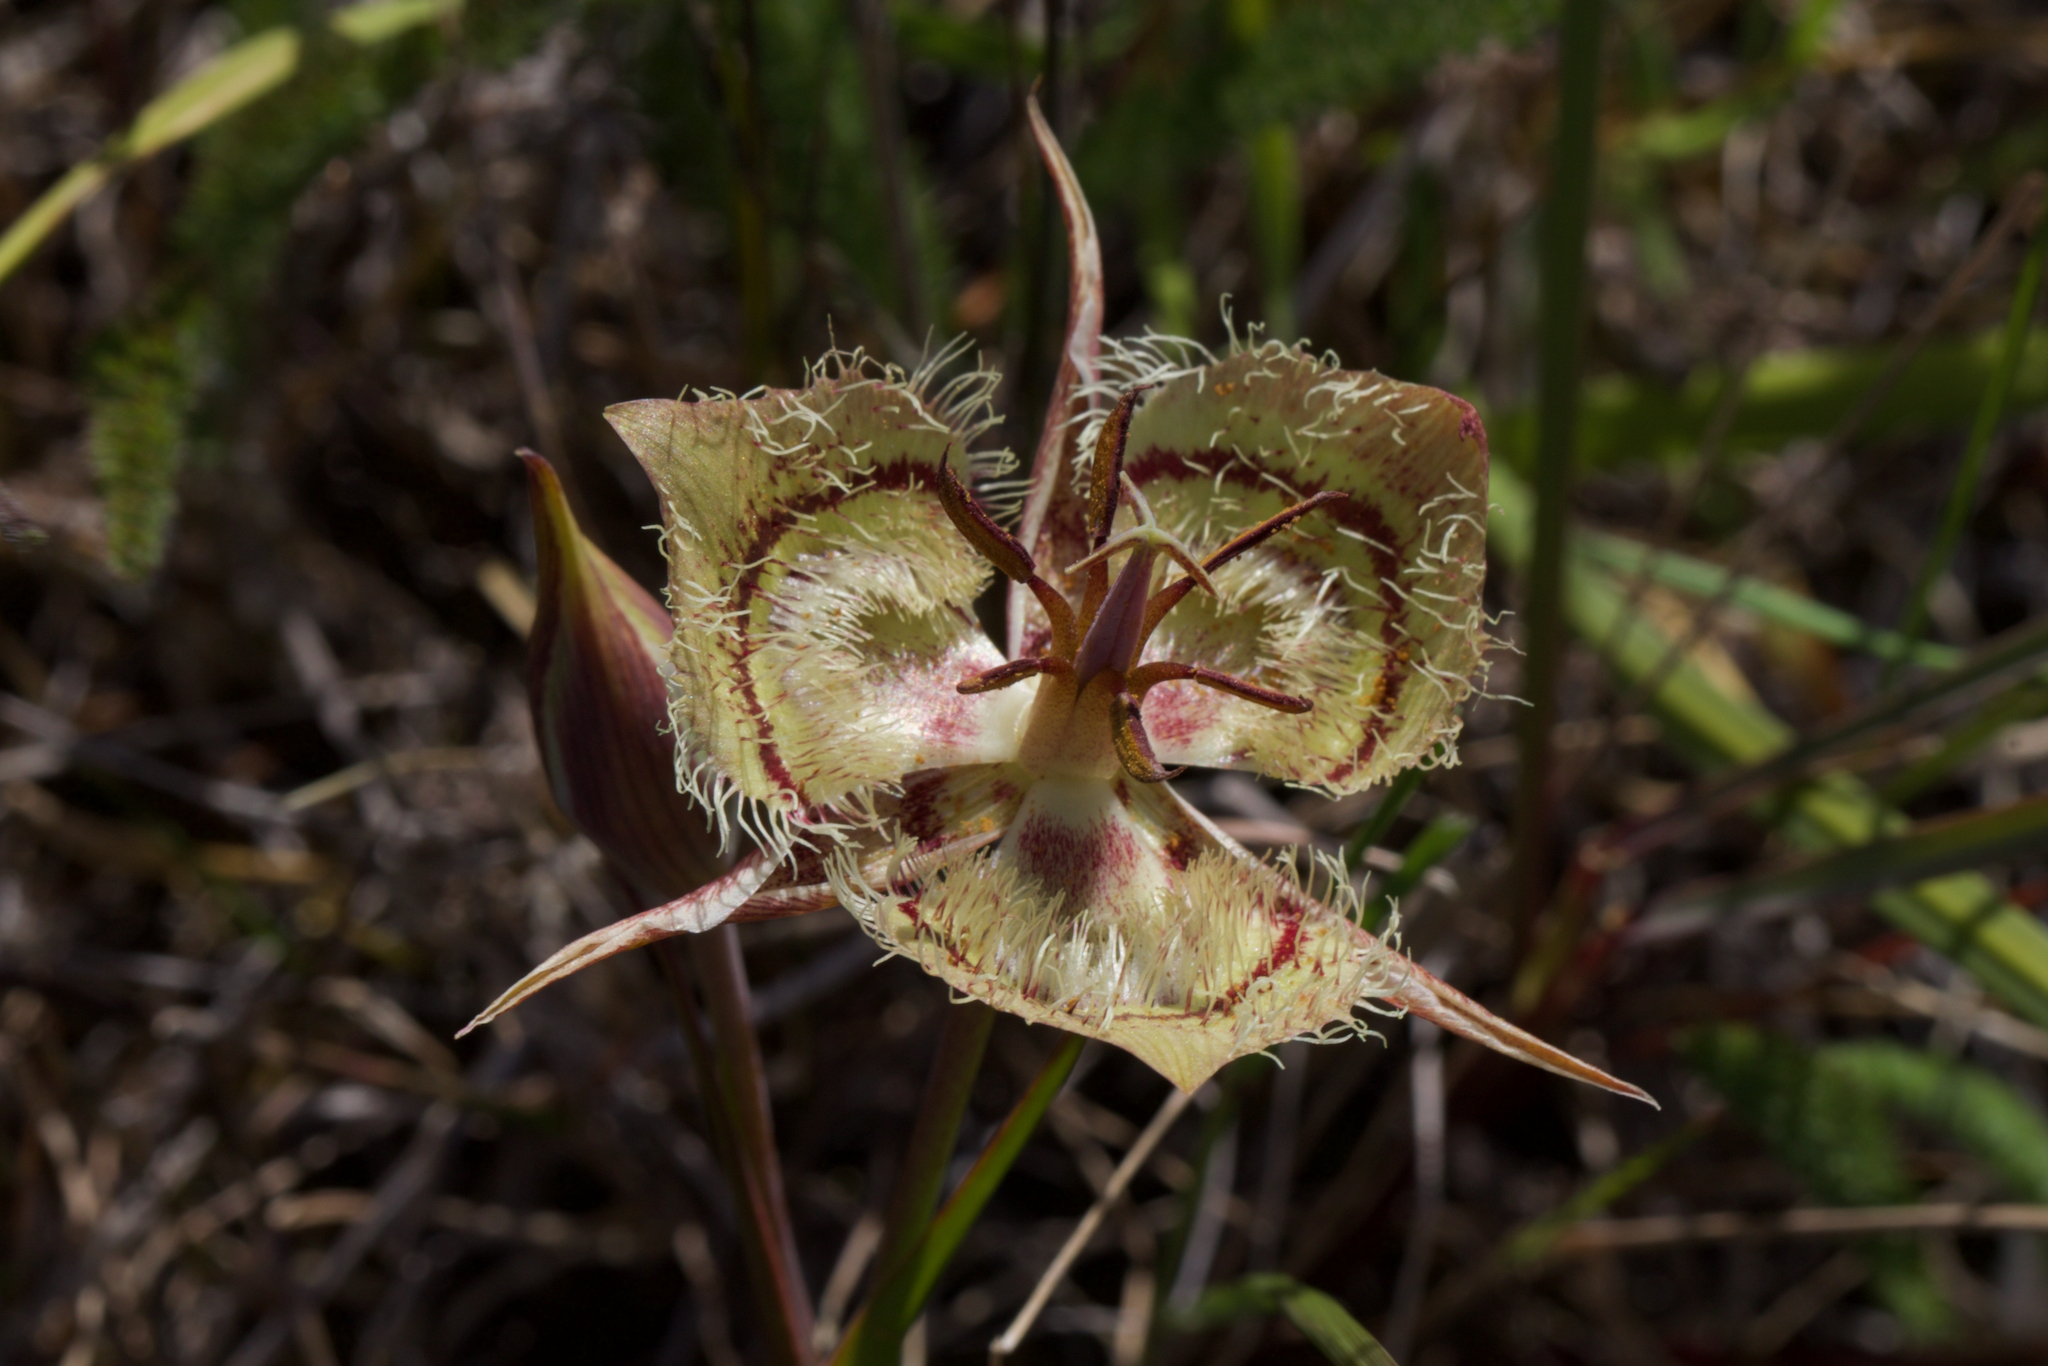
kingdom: Plantae
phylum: Tracheophyta
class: Liliopsida
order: Liliales
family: Liliaceae
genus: Calochortus
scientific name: Calochortus tiburonensis
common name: Tiburon mariposa-lily
